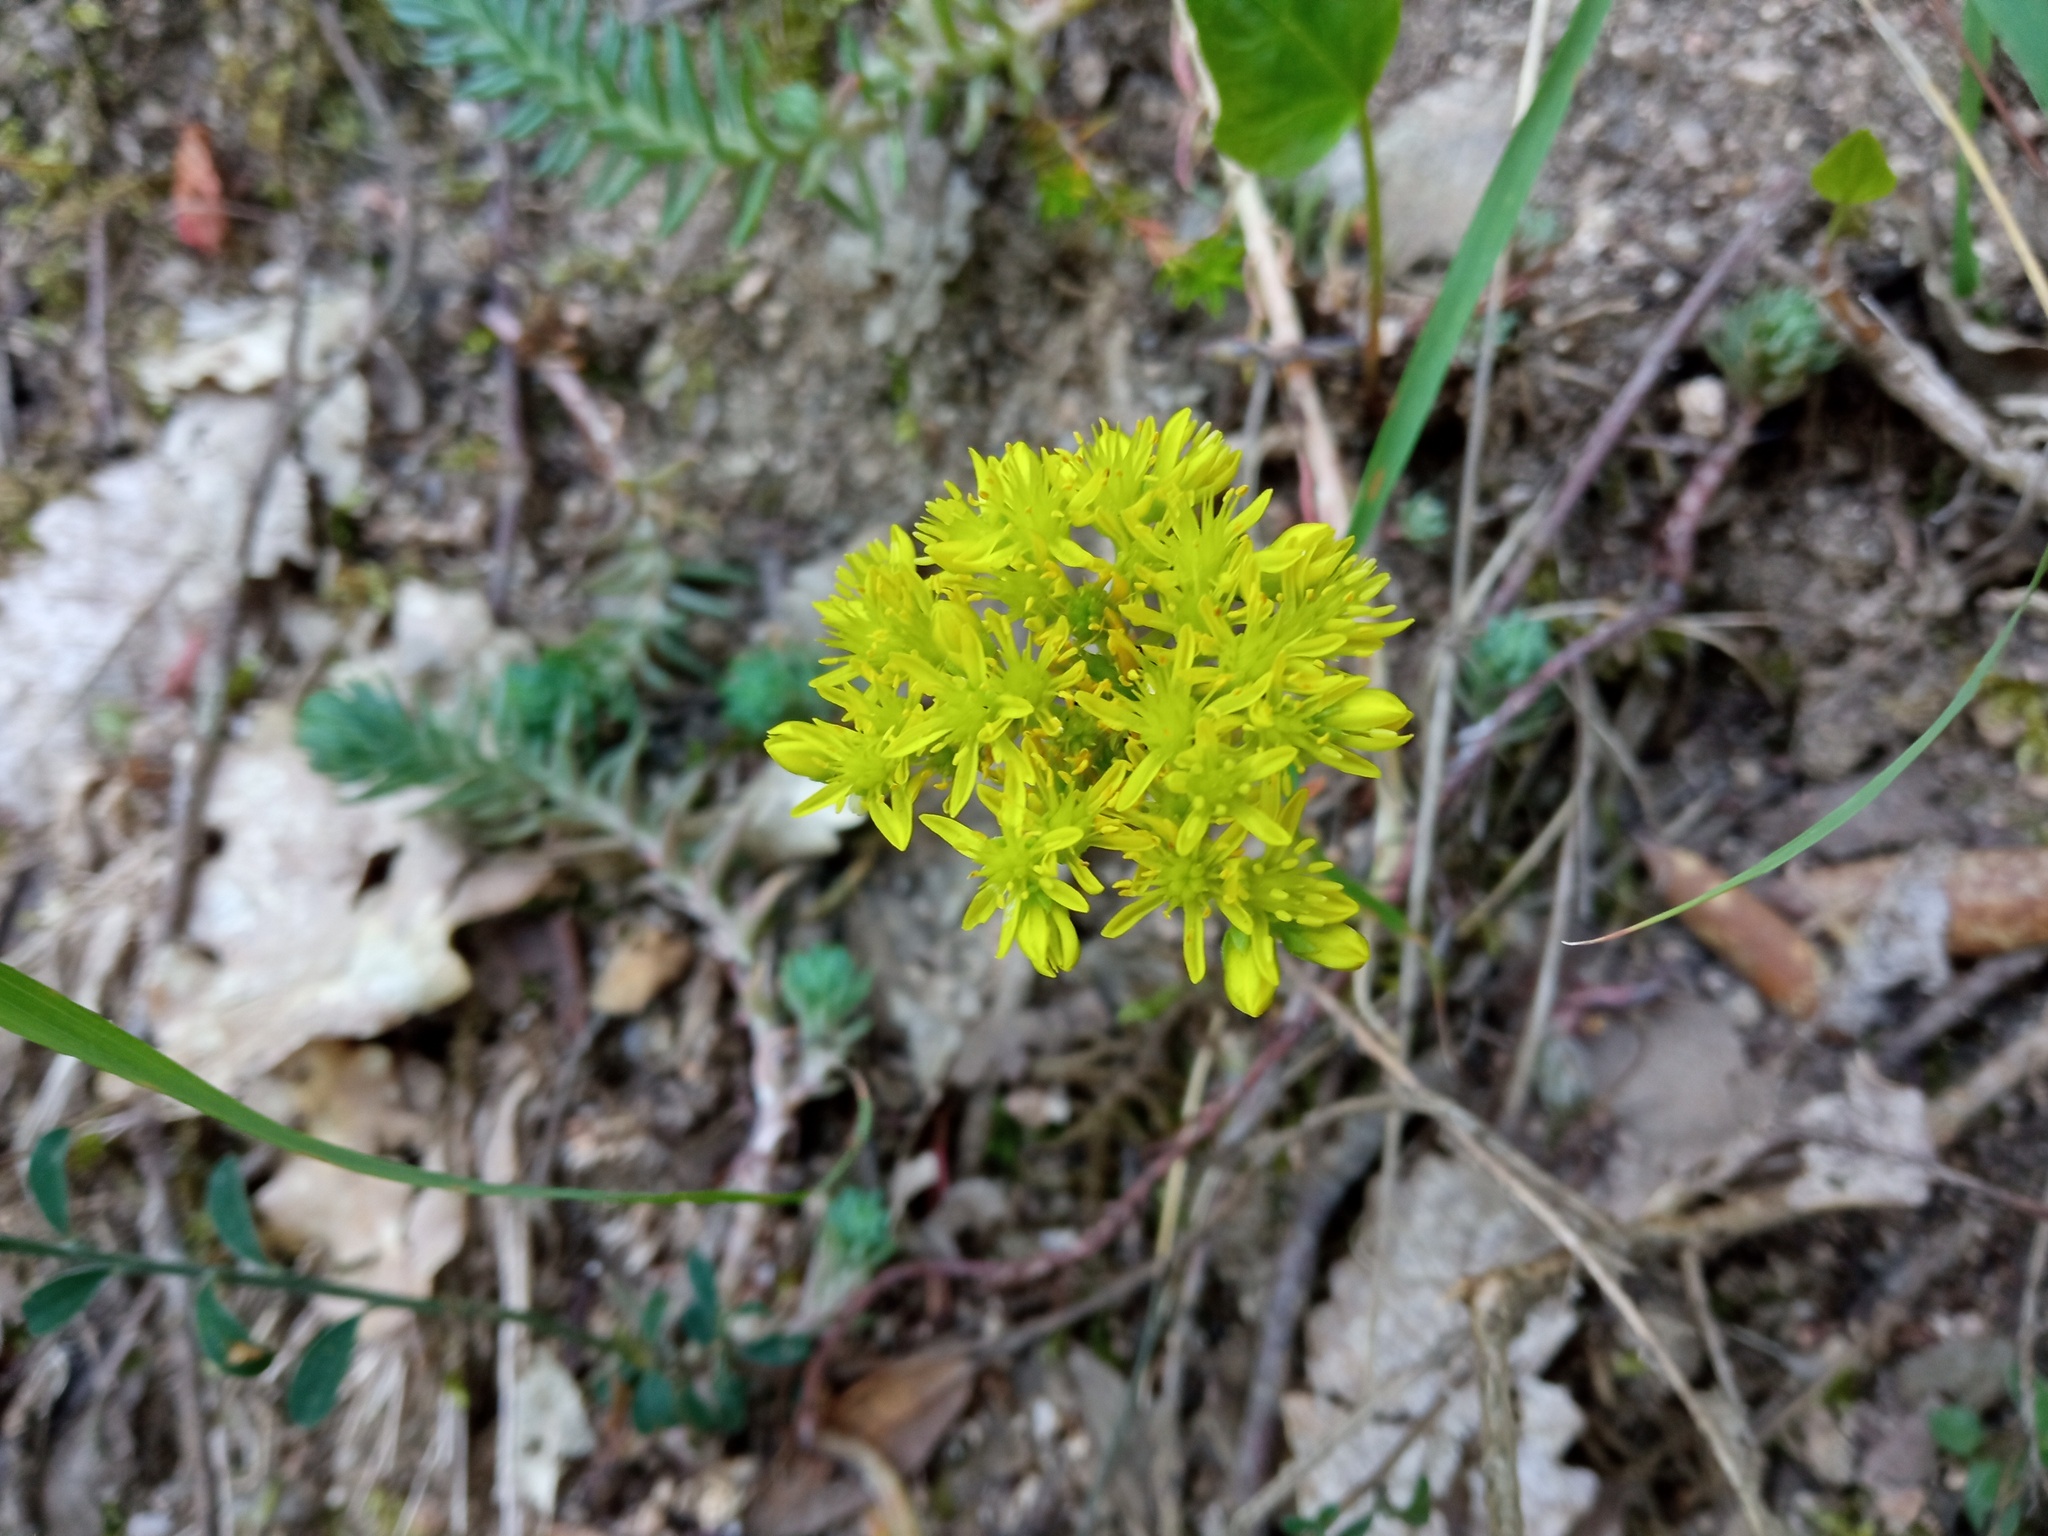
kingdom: Plantae
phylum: Tracheophyta
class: Magnoliopsida
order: Saxifragales
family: Crassulaceae
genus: Petrosedum
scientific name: Petrosedum rupestre
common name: Jenny's stonecrop
